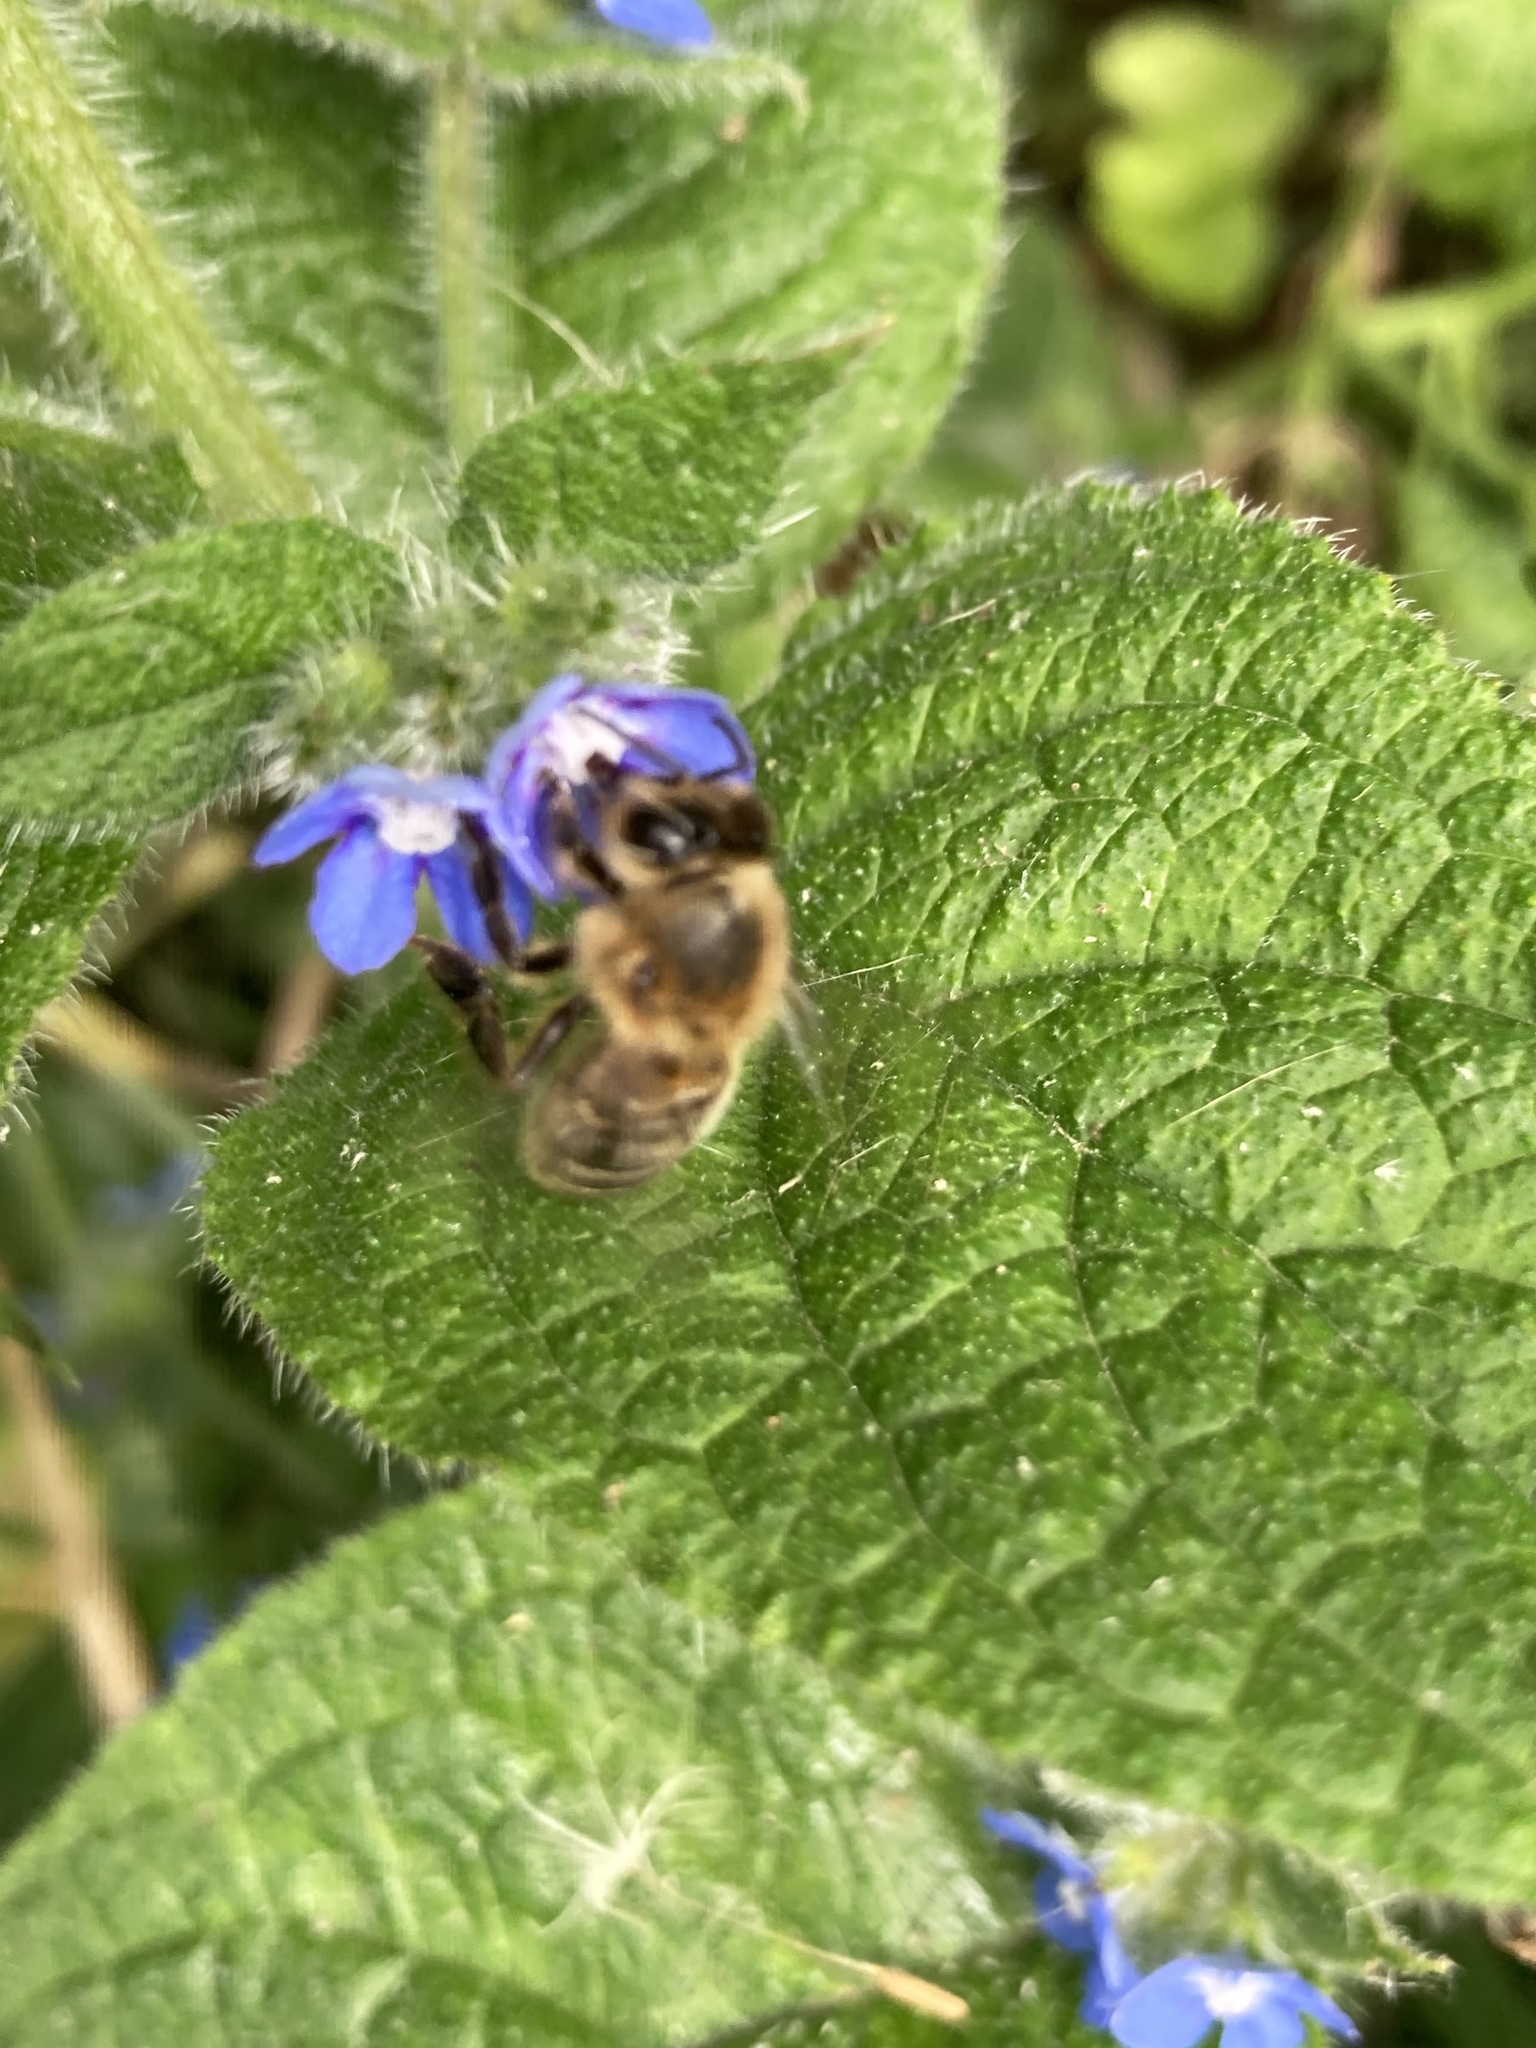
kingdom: Animalia
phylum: Arthropoda
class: Insecta
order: Hymenoptera
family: Apidae
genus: Apis
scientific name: Apis mellifera
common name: Honey bee
